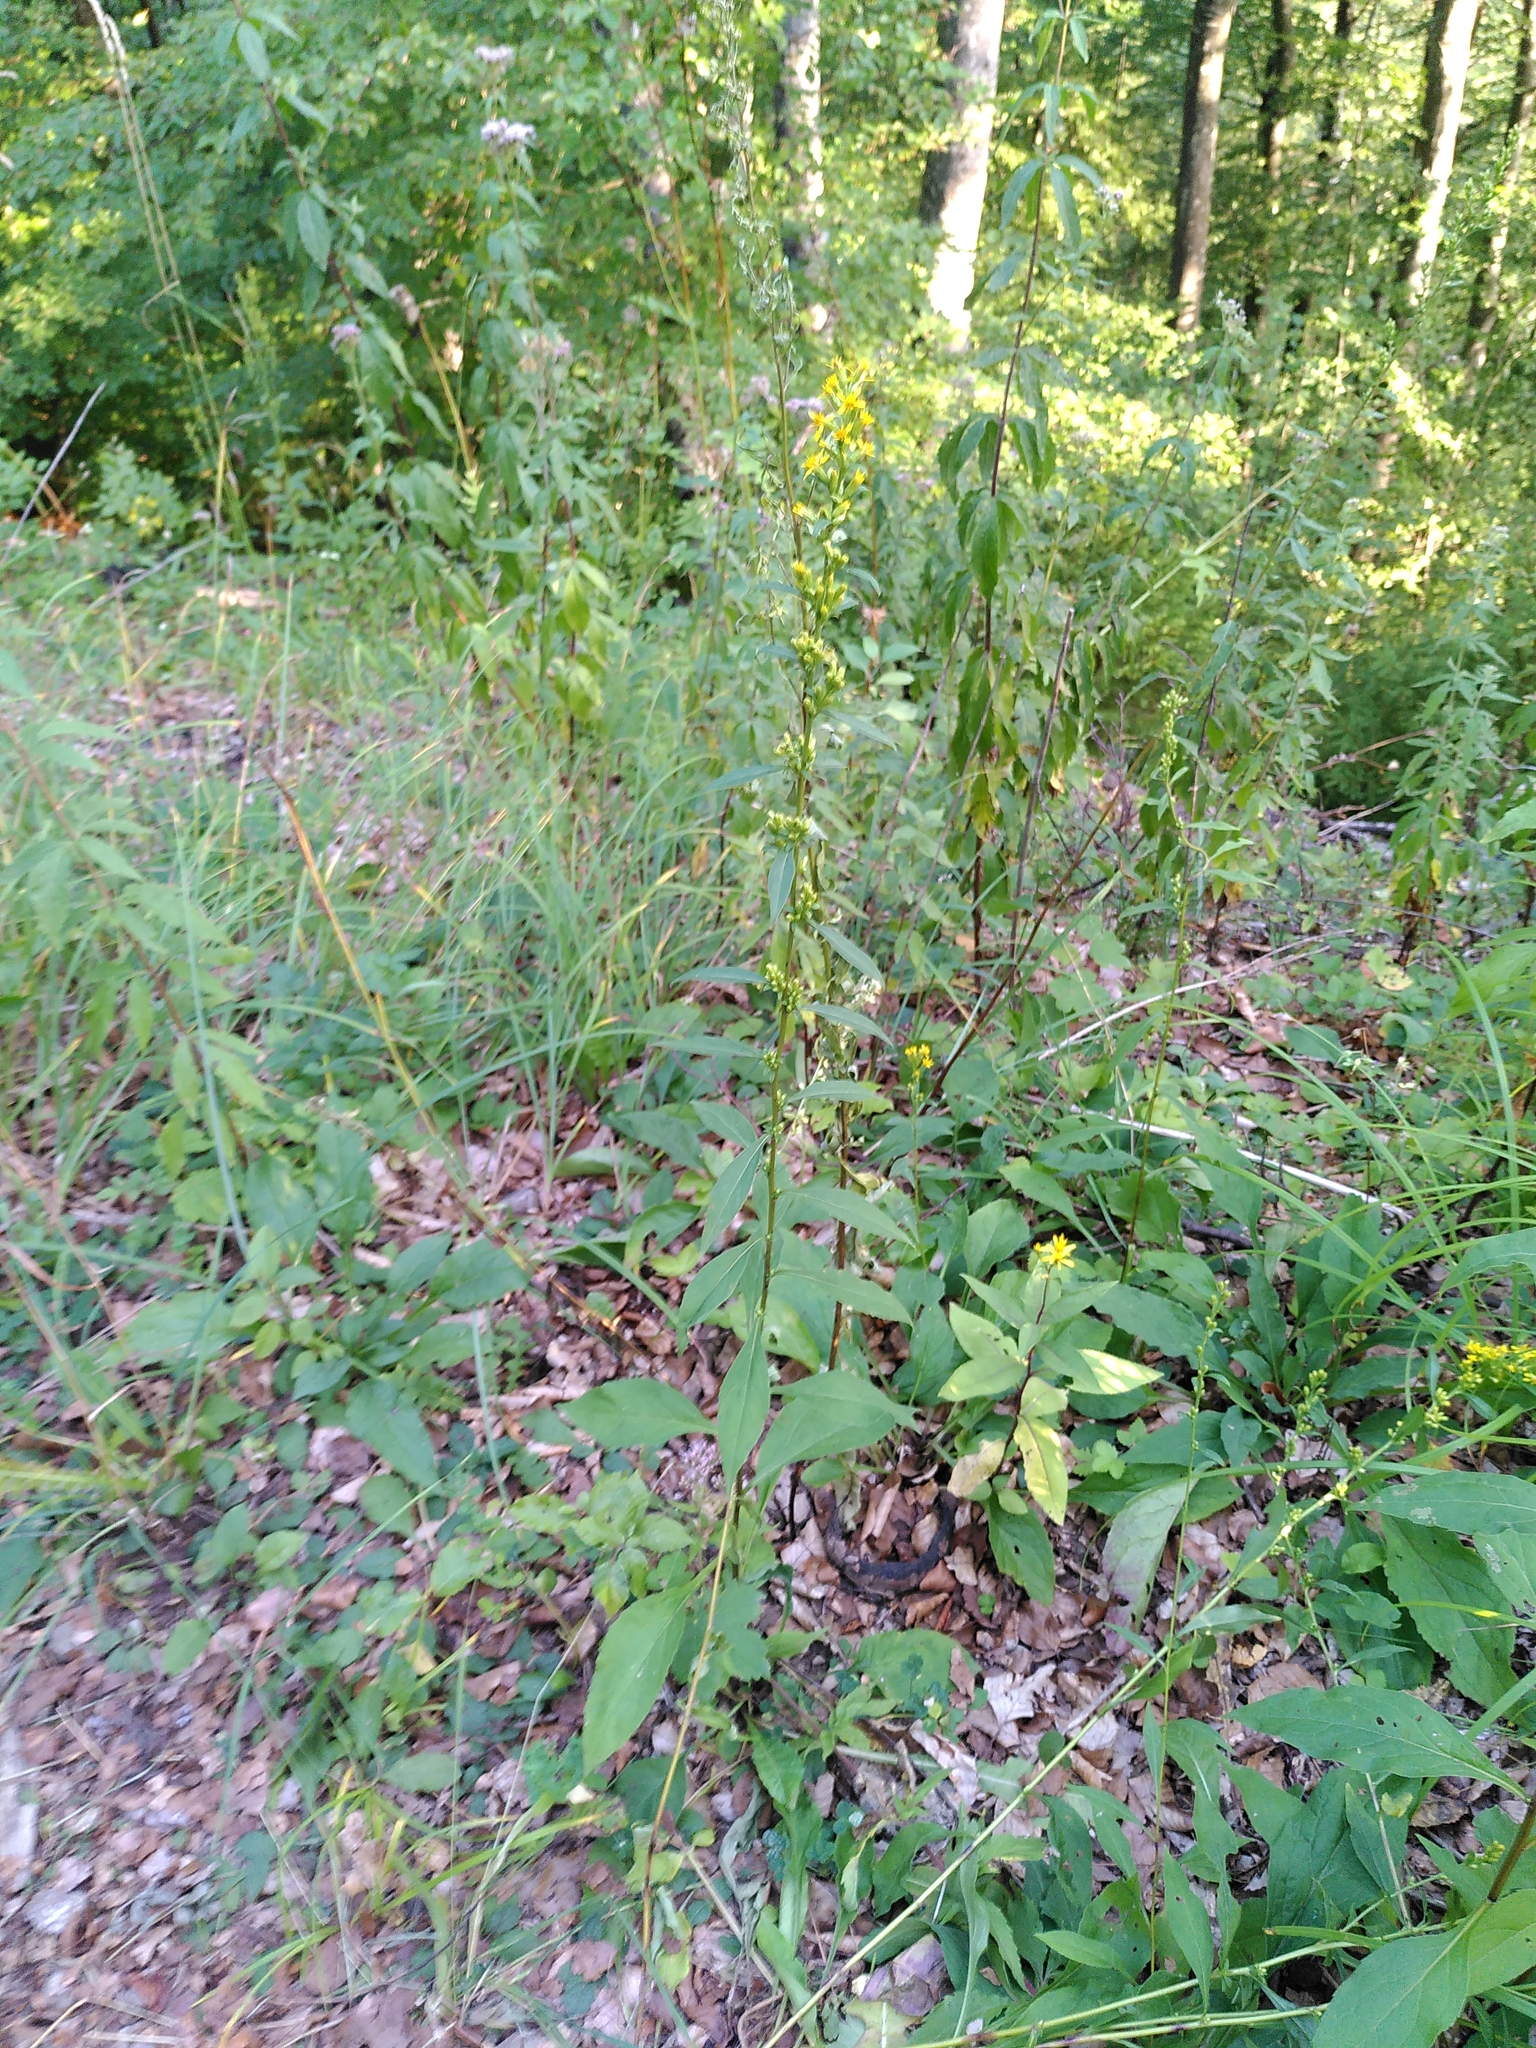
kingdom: Plantae
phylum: Tracheophyta
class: Magnoliopsida
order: Asterales
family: Asteraceae
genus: Solidago
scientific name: Solidago virgaurea
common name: Goldenrod
